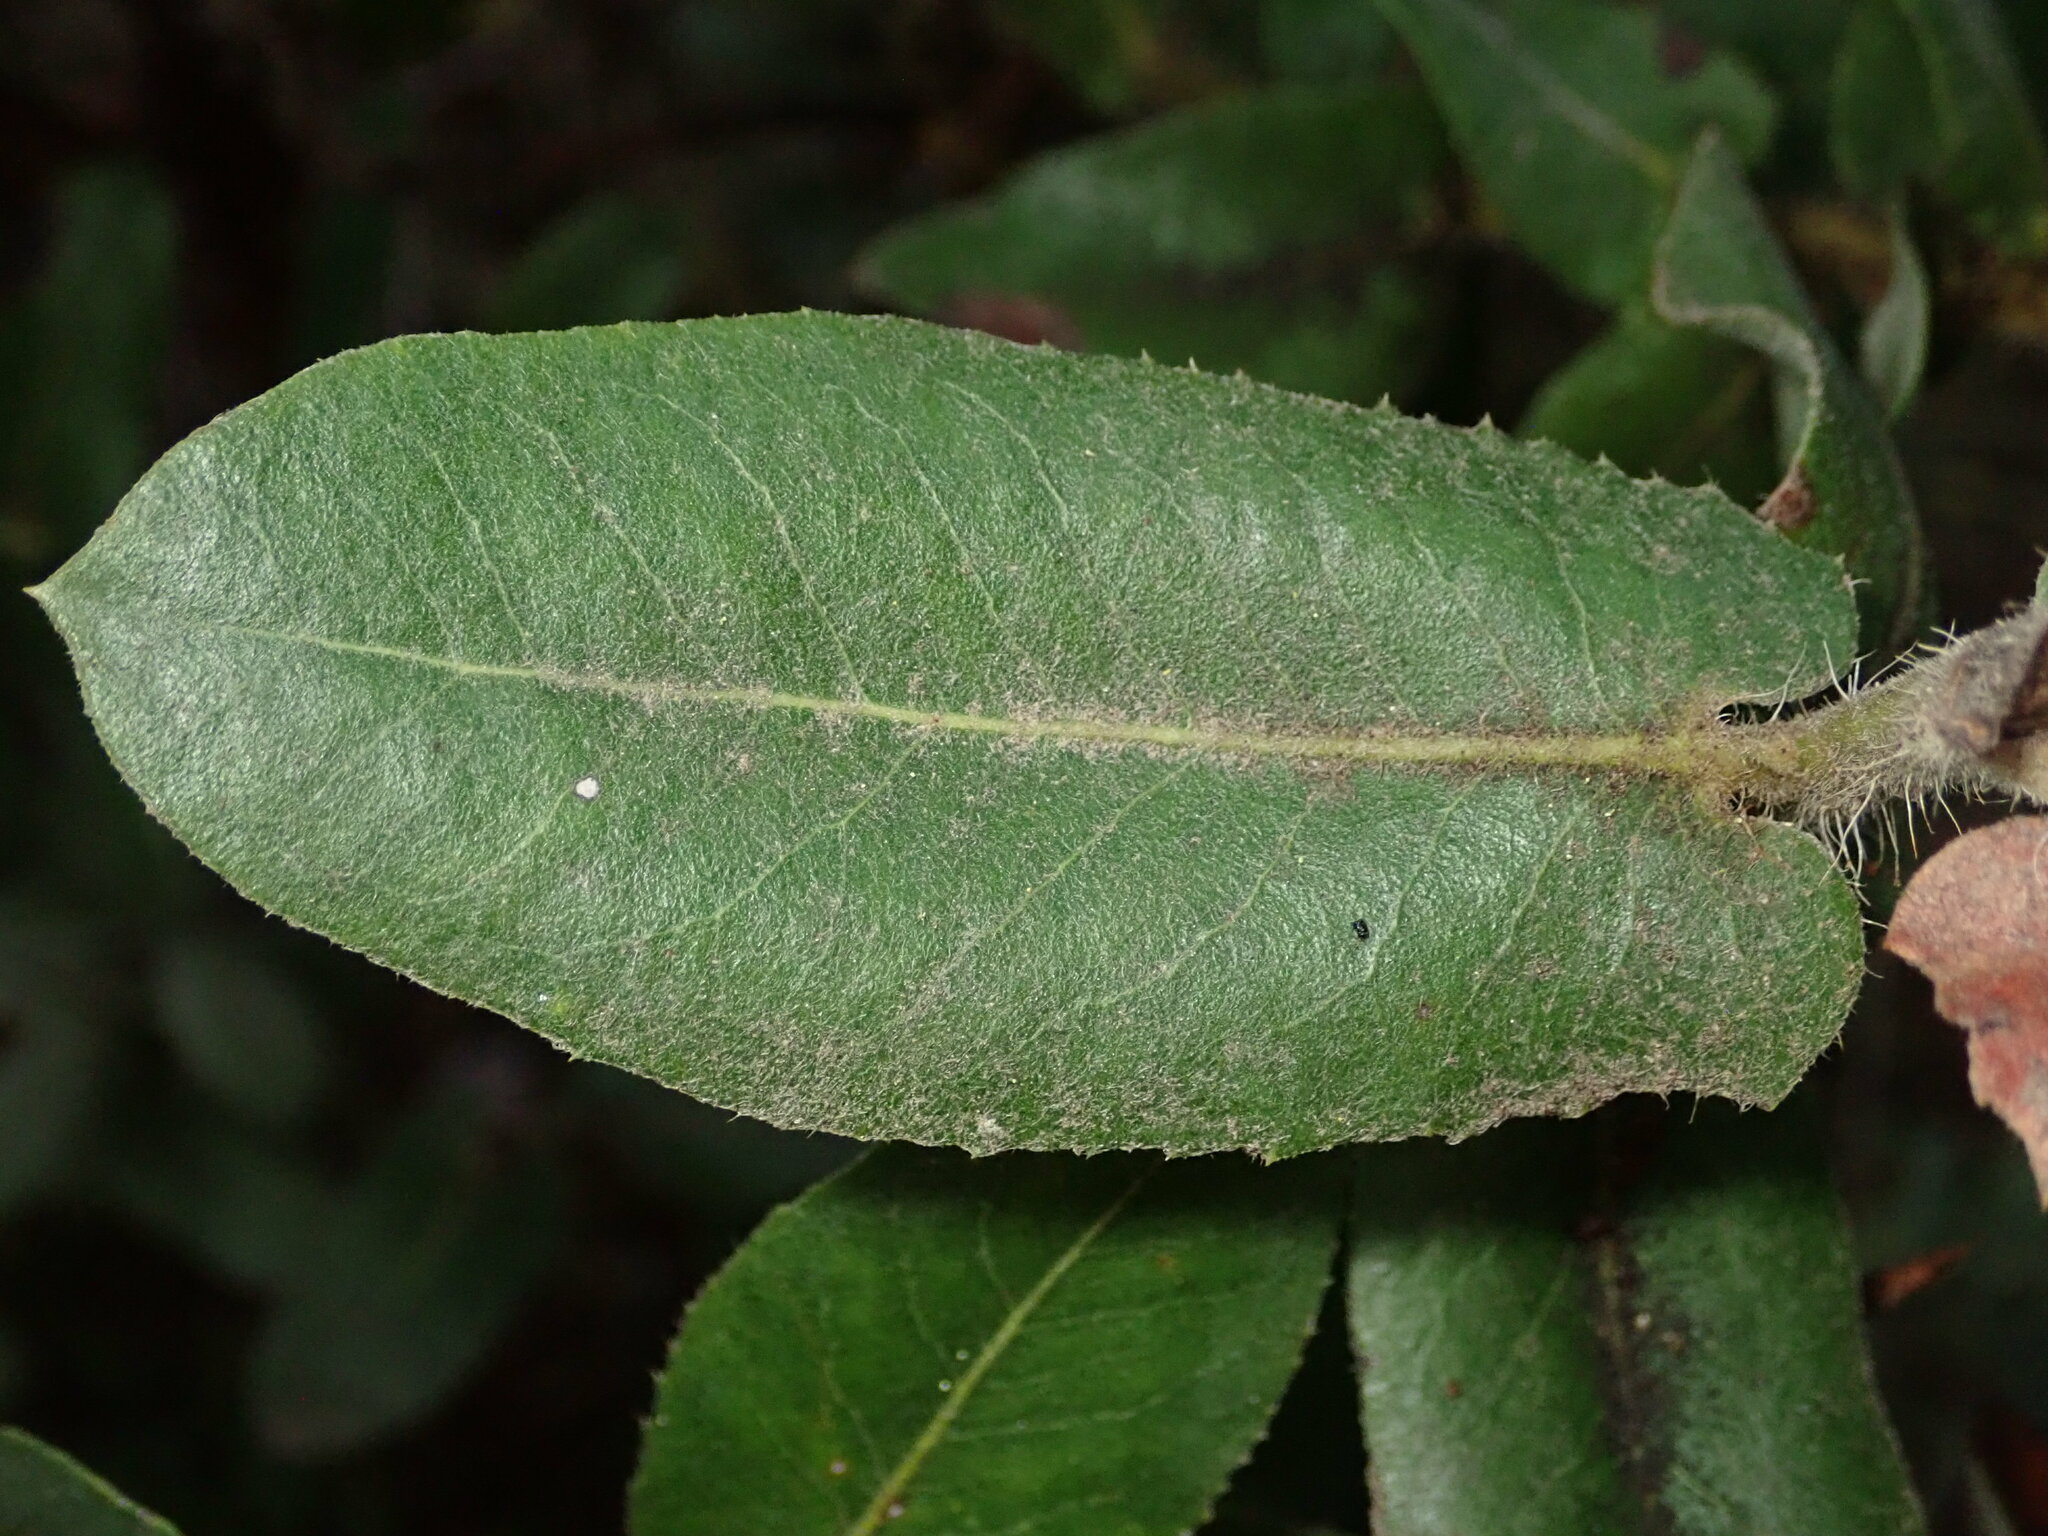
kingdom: Plantae
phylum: Tracheophyta
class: Magnoliopsida
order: Ericales
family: Ericaceae
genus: Arctostaphylos
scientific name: Arctostaphylos regismontana
